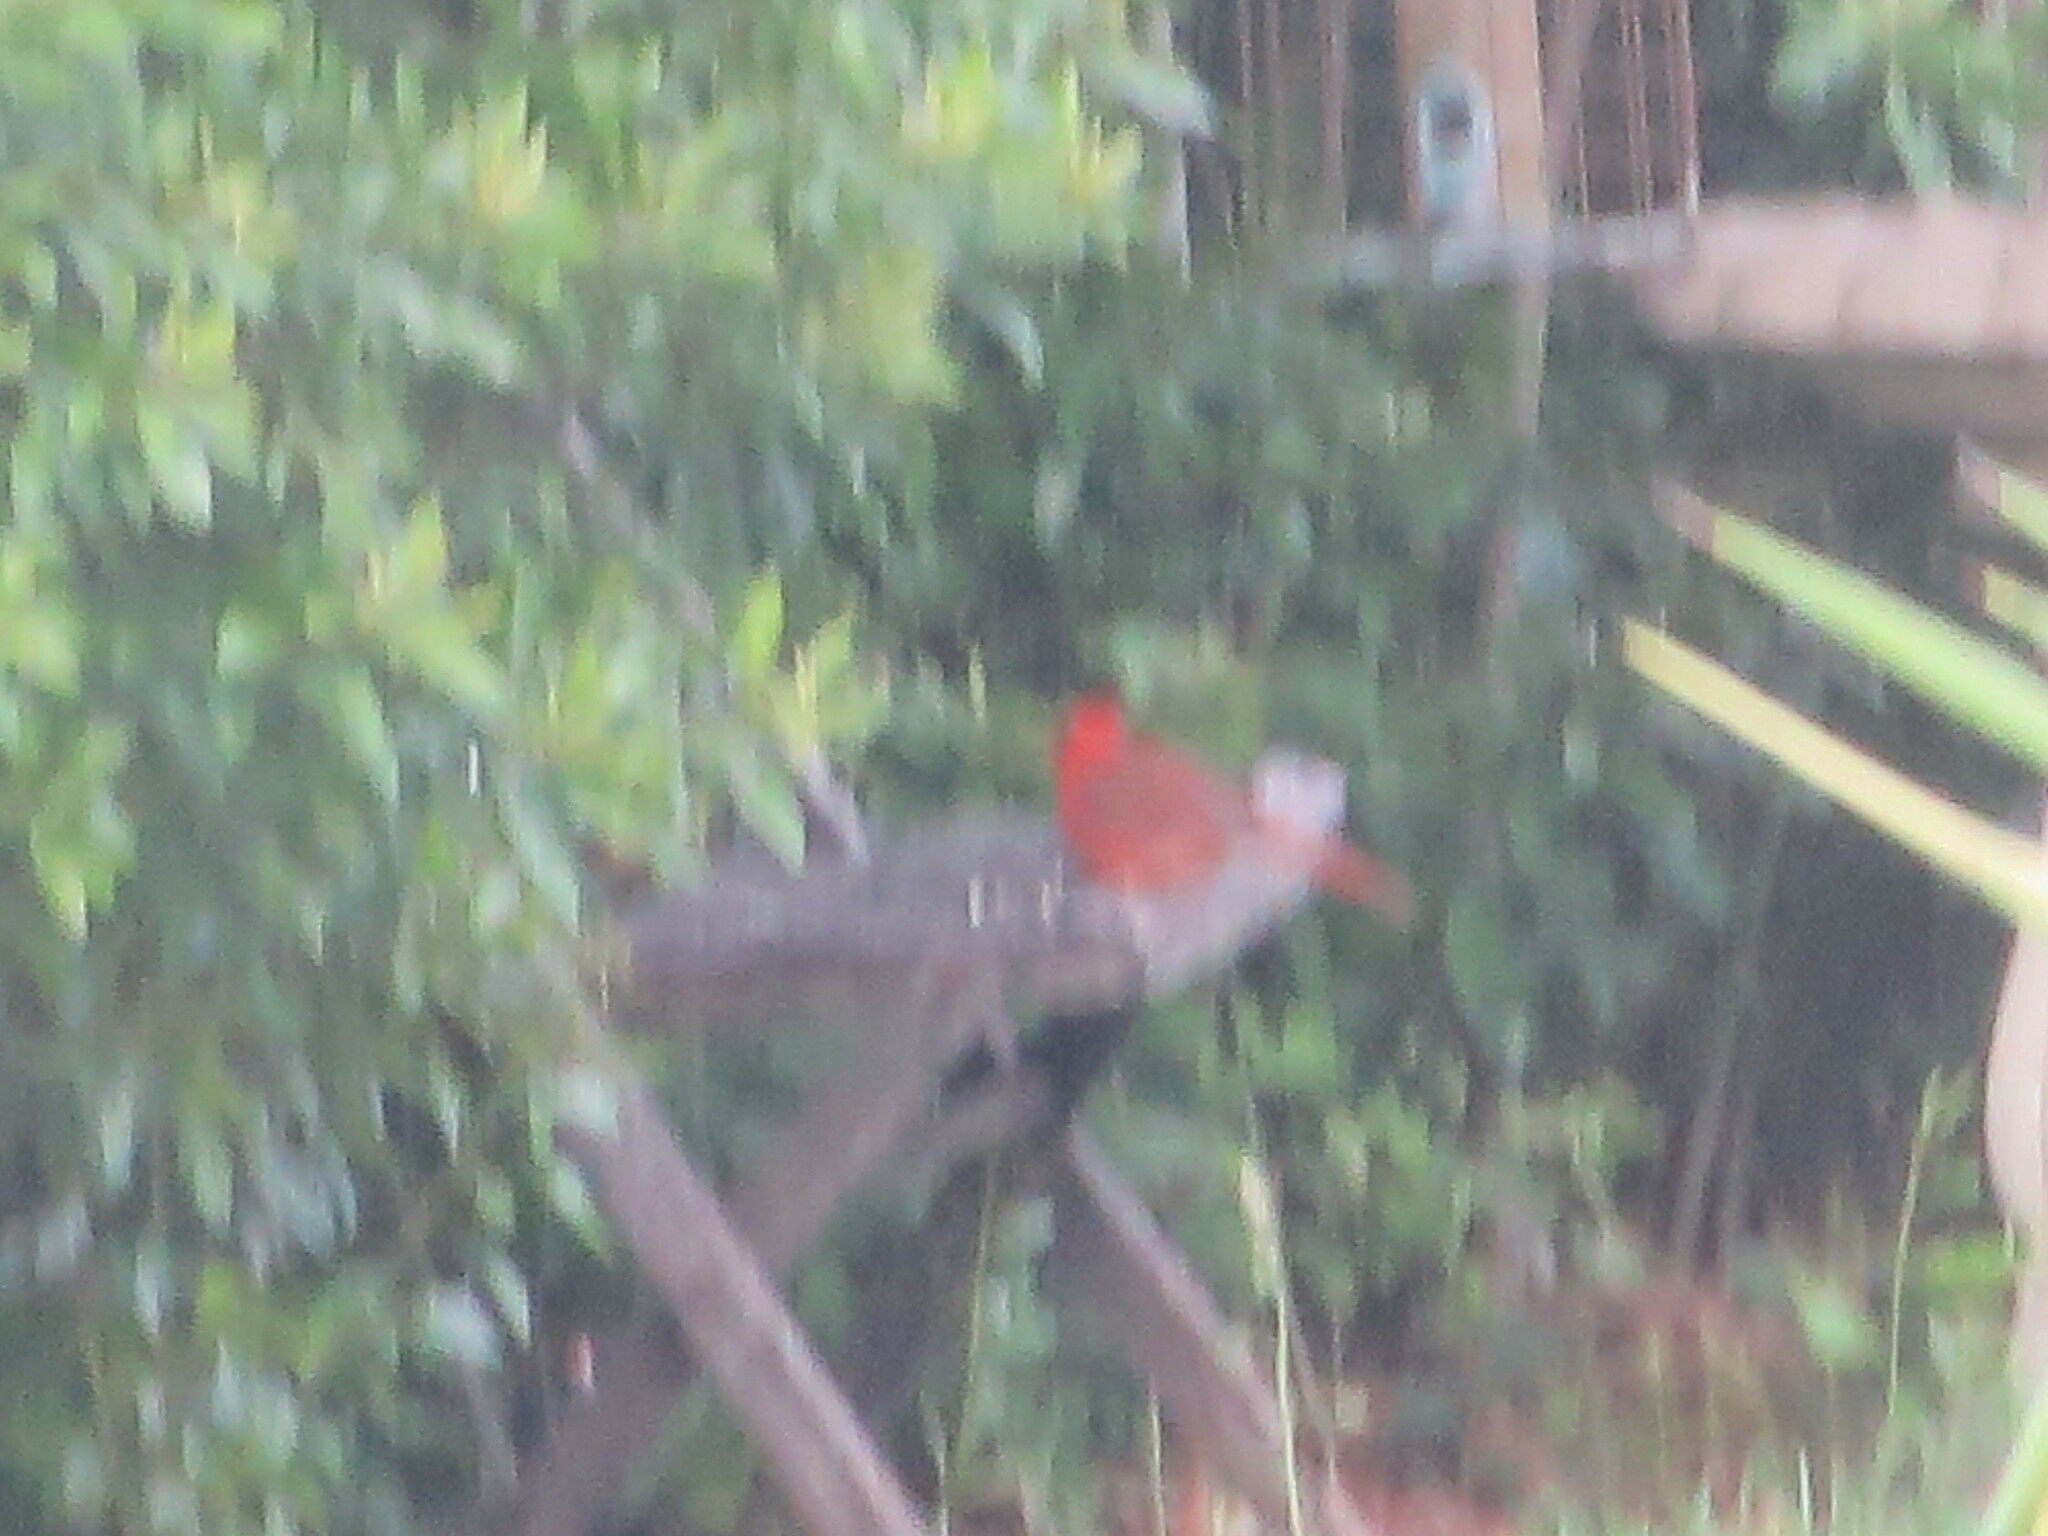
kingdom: Animalia
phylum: Chordata
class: Aves
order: Passeriformes
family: Cardinalidae
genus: Cardinalis
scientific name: Cardinalis cardinalis
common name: Northern cardinal
